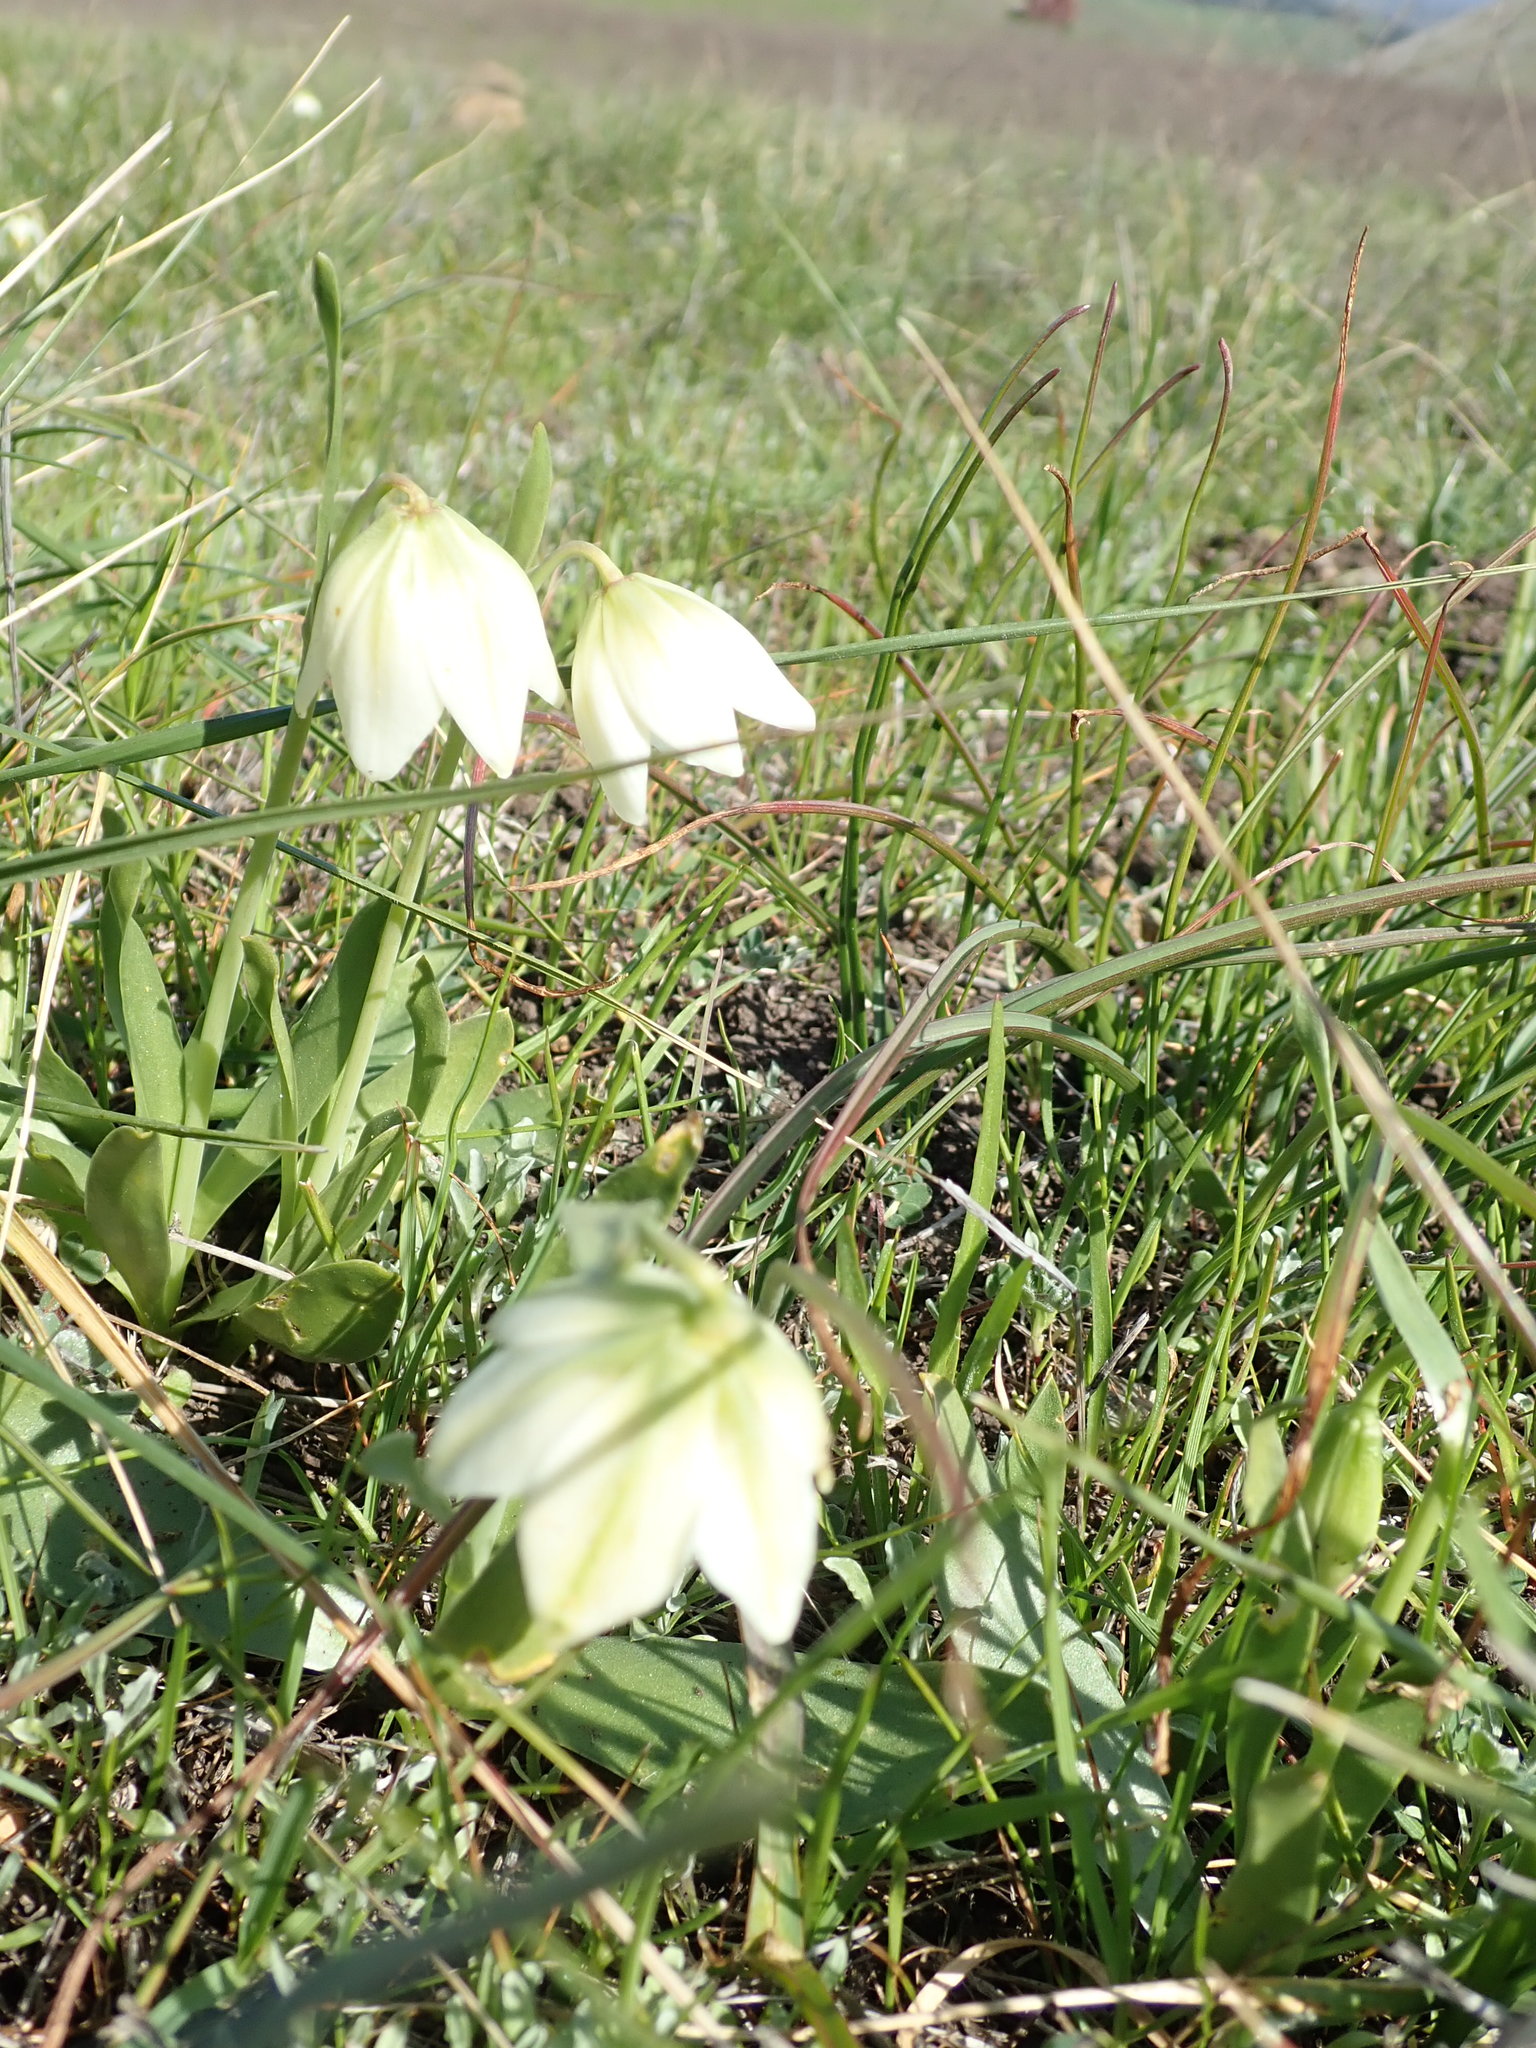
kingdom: Plantae
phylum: Tracheophyta
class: Liliopsida
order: Liliales
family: Liliaceae
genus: Fritillaria
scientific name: Fritillaria liliacea
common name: Fragrant fritillary
